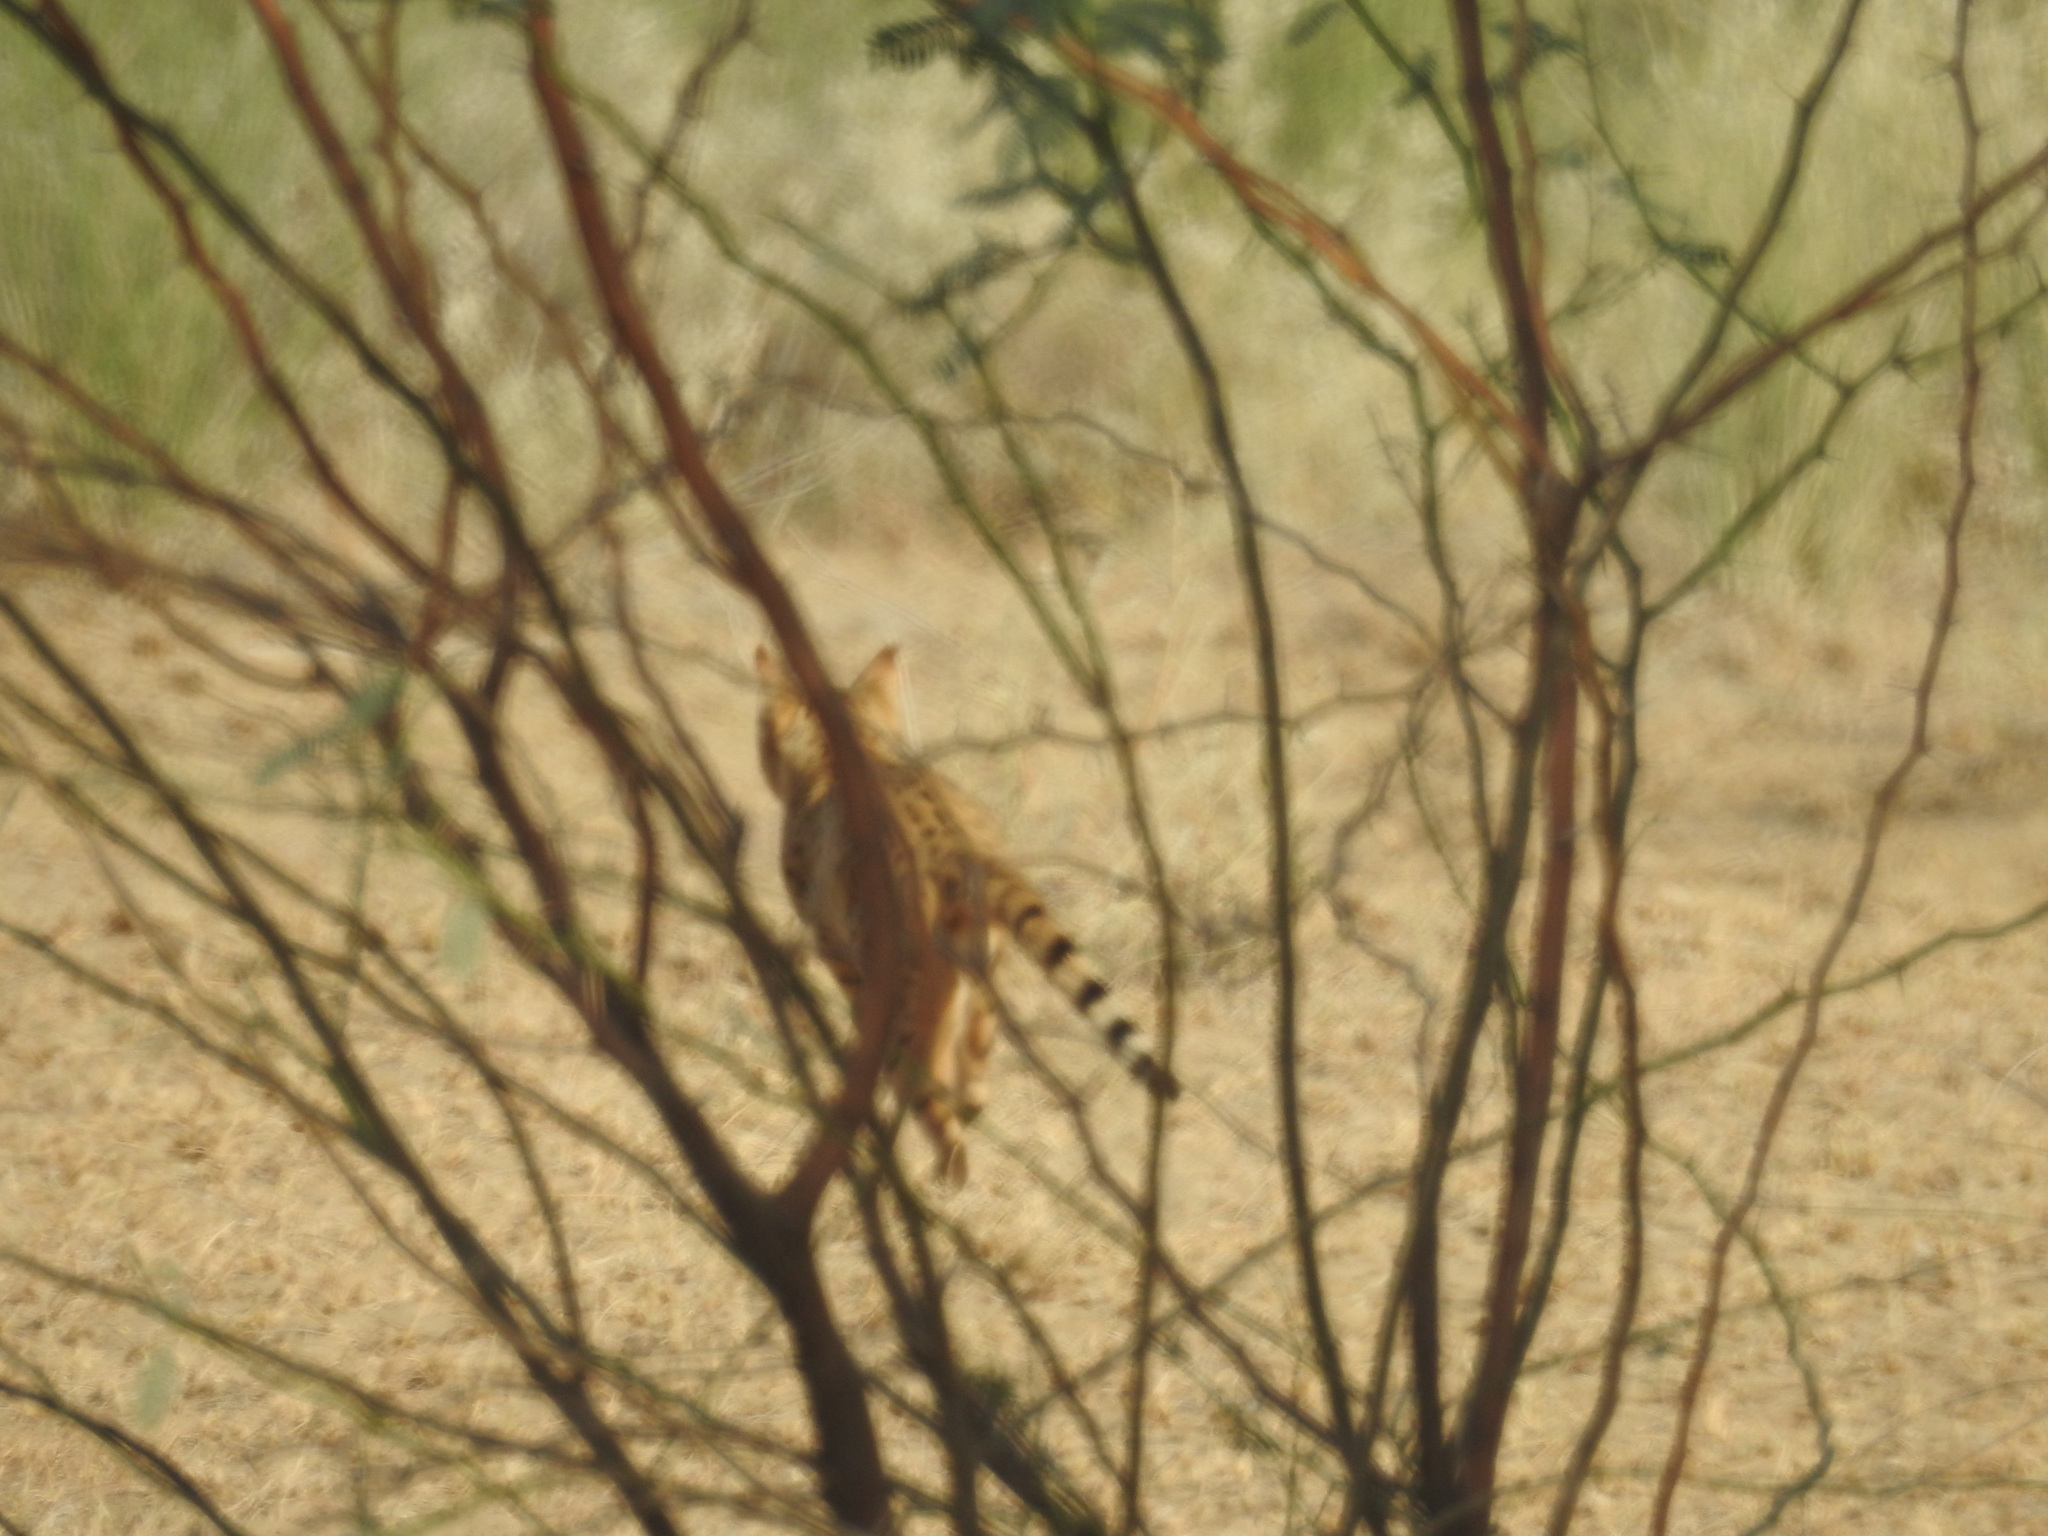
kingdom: Animalia
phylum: Chordata
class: Mammalia
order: Carnivora
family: Felidae
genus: Felis
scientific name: Felis silvestris
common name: Wildcat
